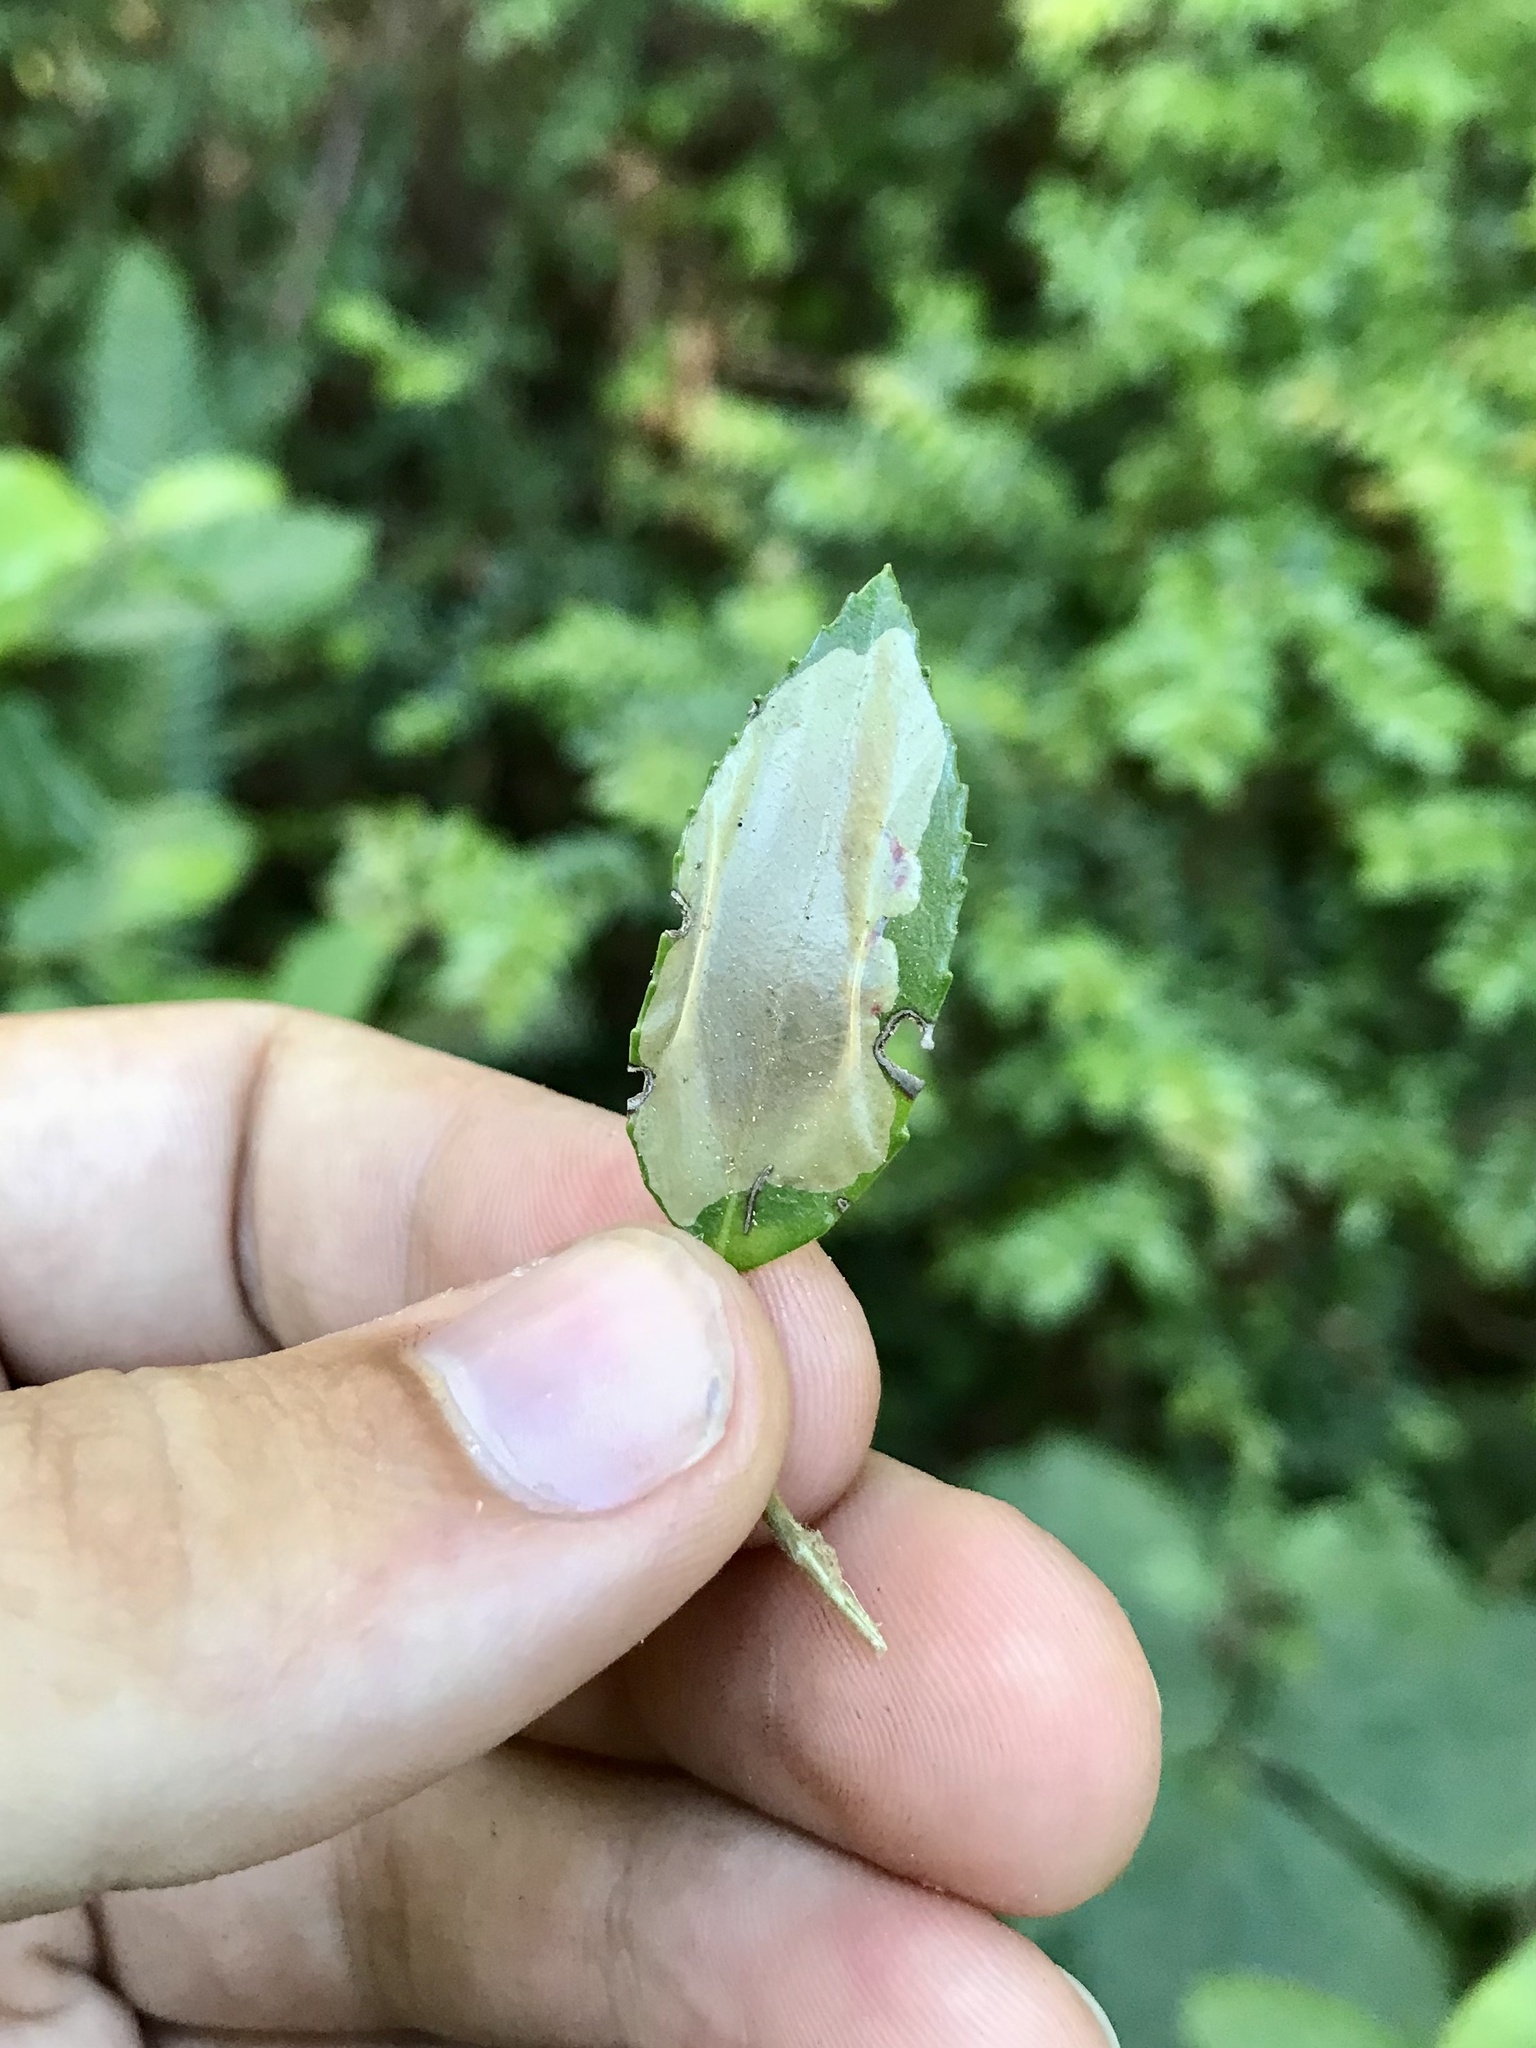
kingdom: Animalia
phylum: Arthropoda
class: Insecta
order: Lepidoptera
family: Gracillariidae
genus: Cameraria
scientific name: Cameraria nemoris
